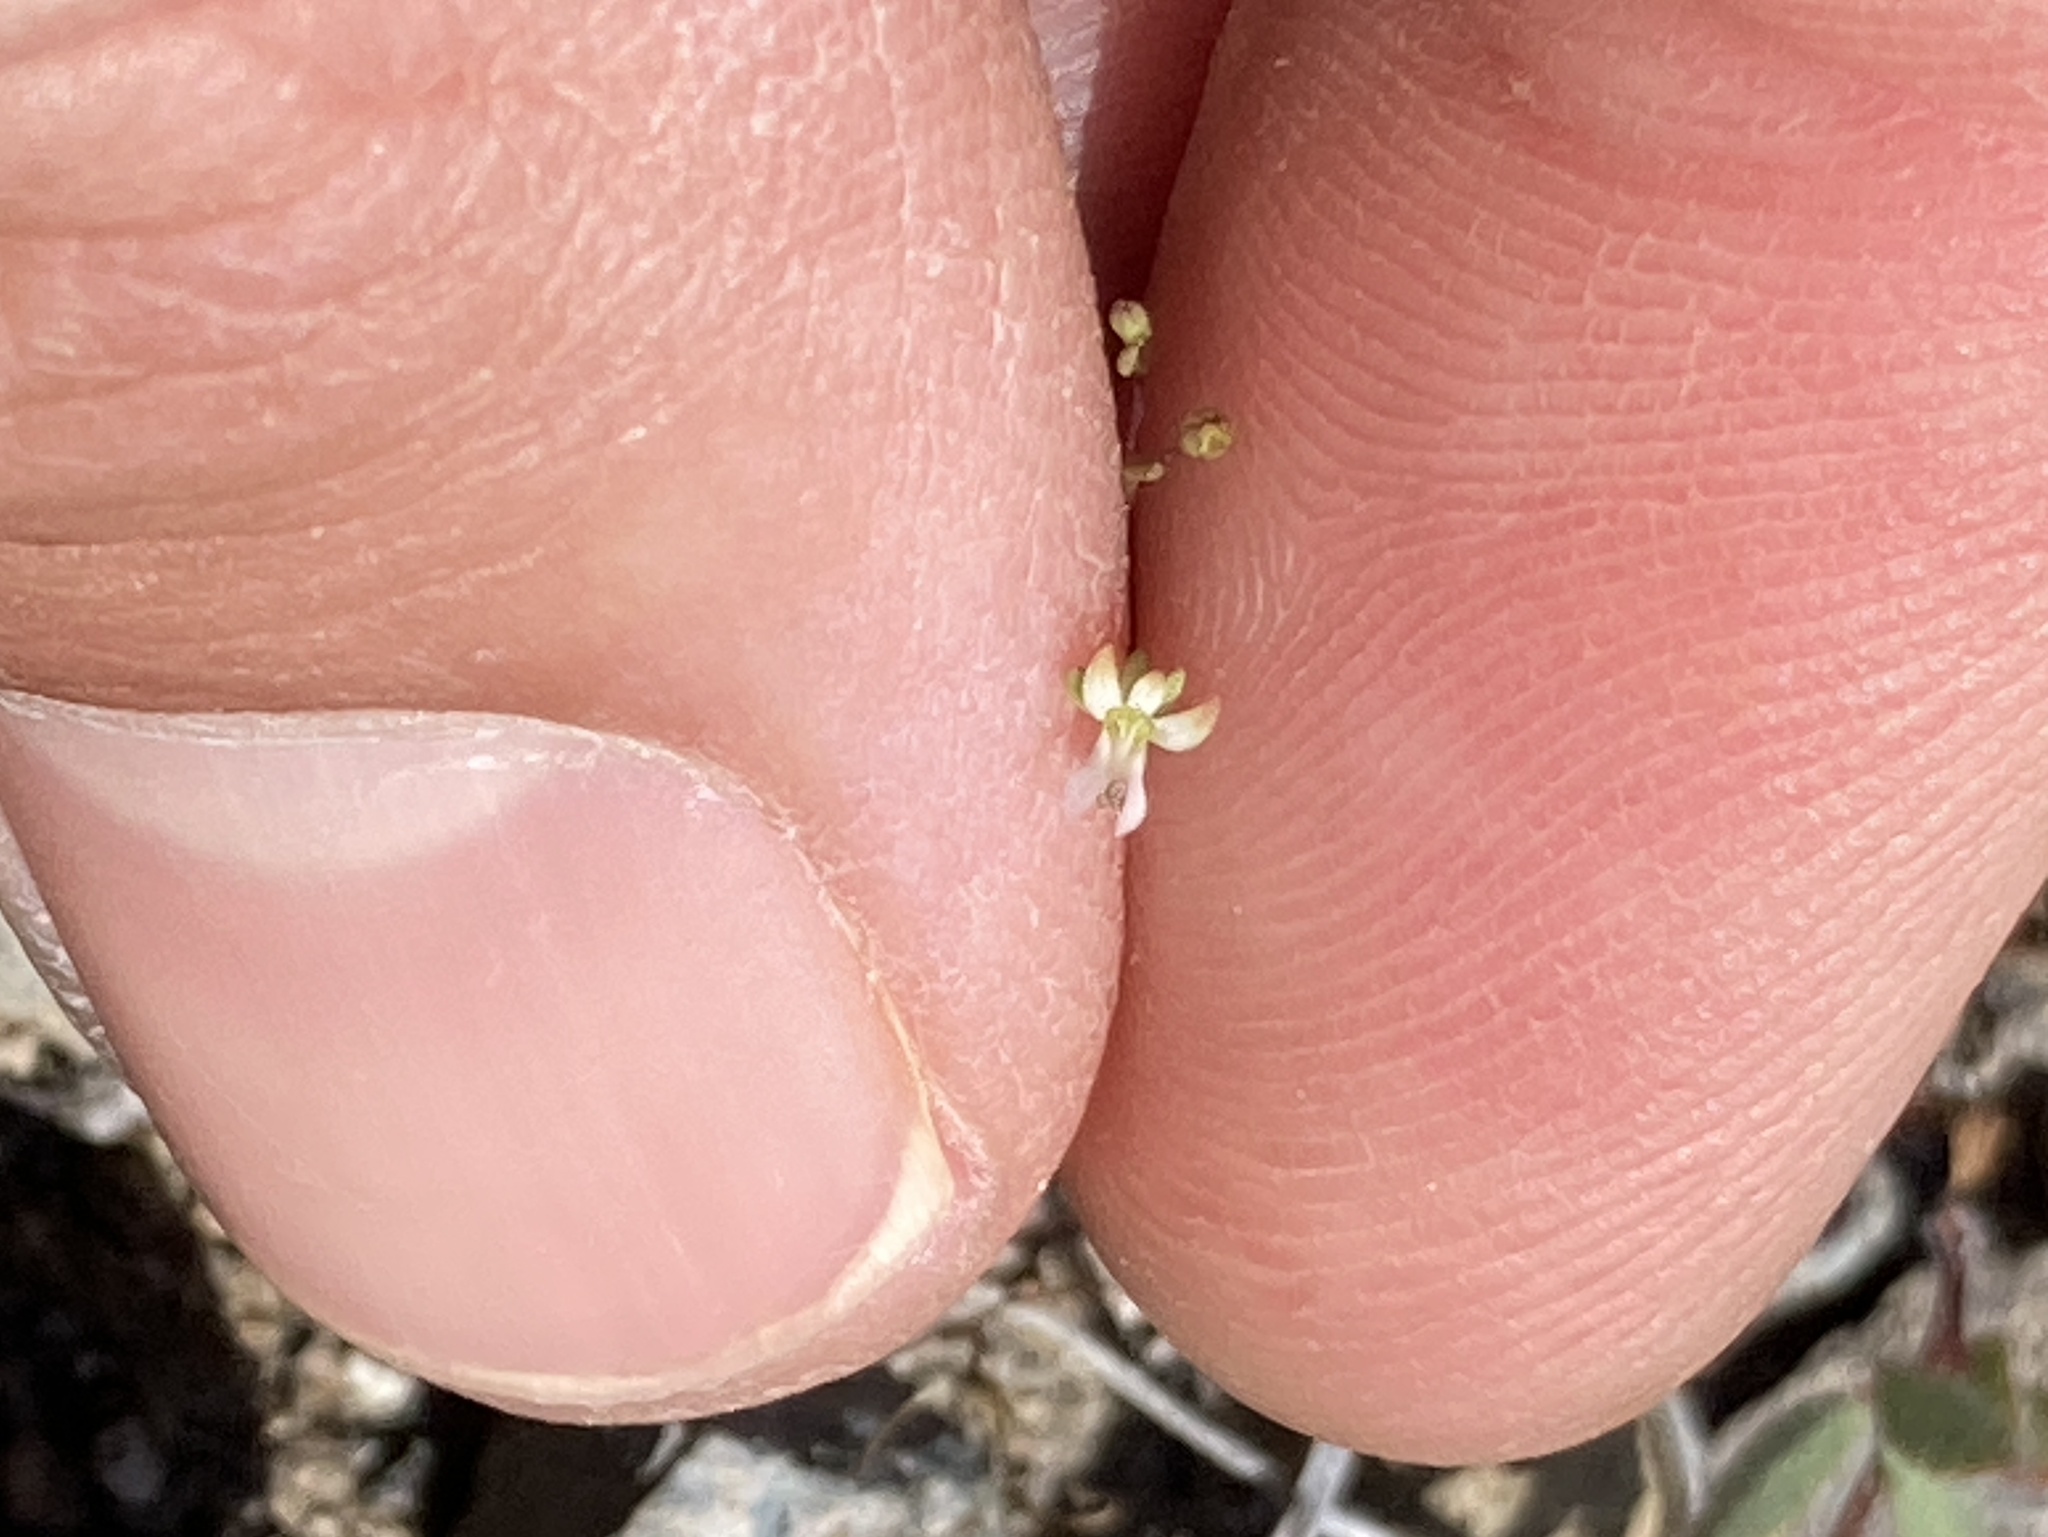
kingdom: Plantae
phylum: Tracheophyta
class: Magnoliopsida
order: Asterales
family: Campanulaceae
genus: Nemacladus
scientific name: Nemacladus capillaris
